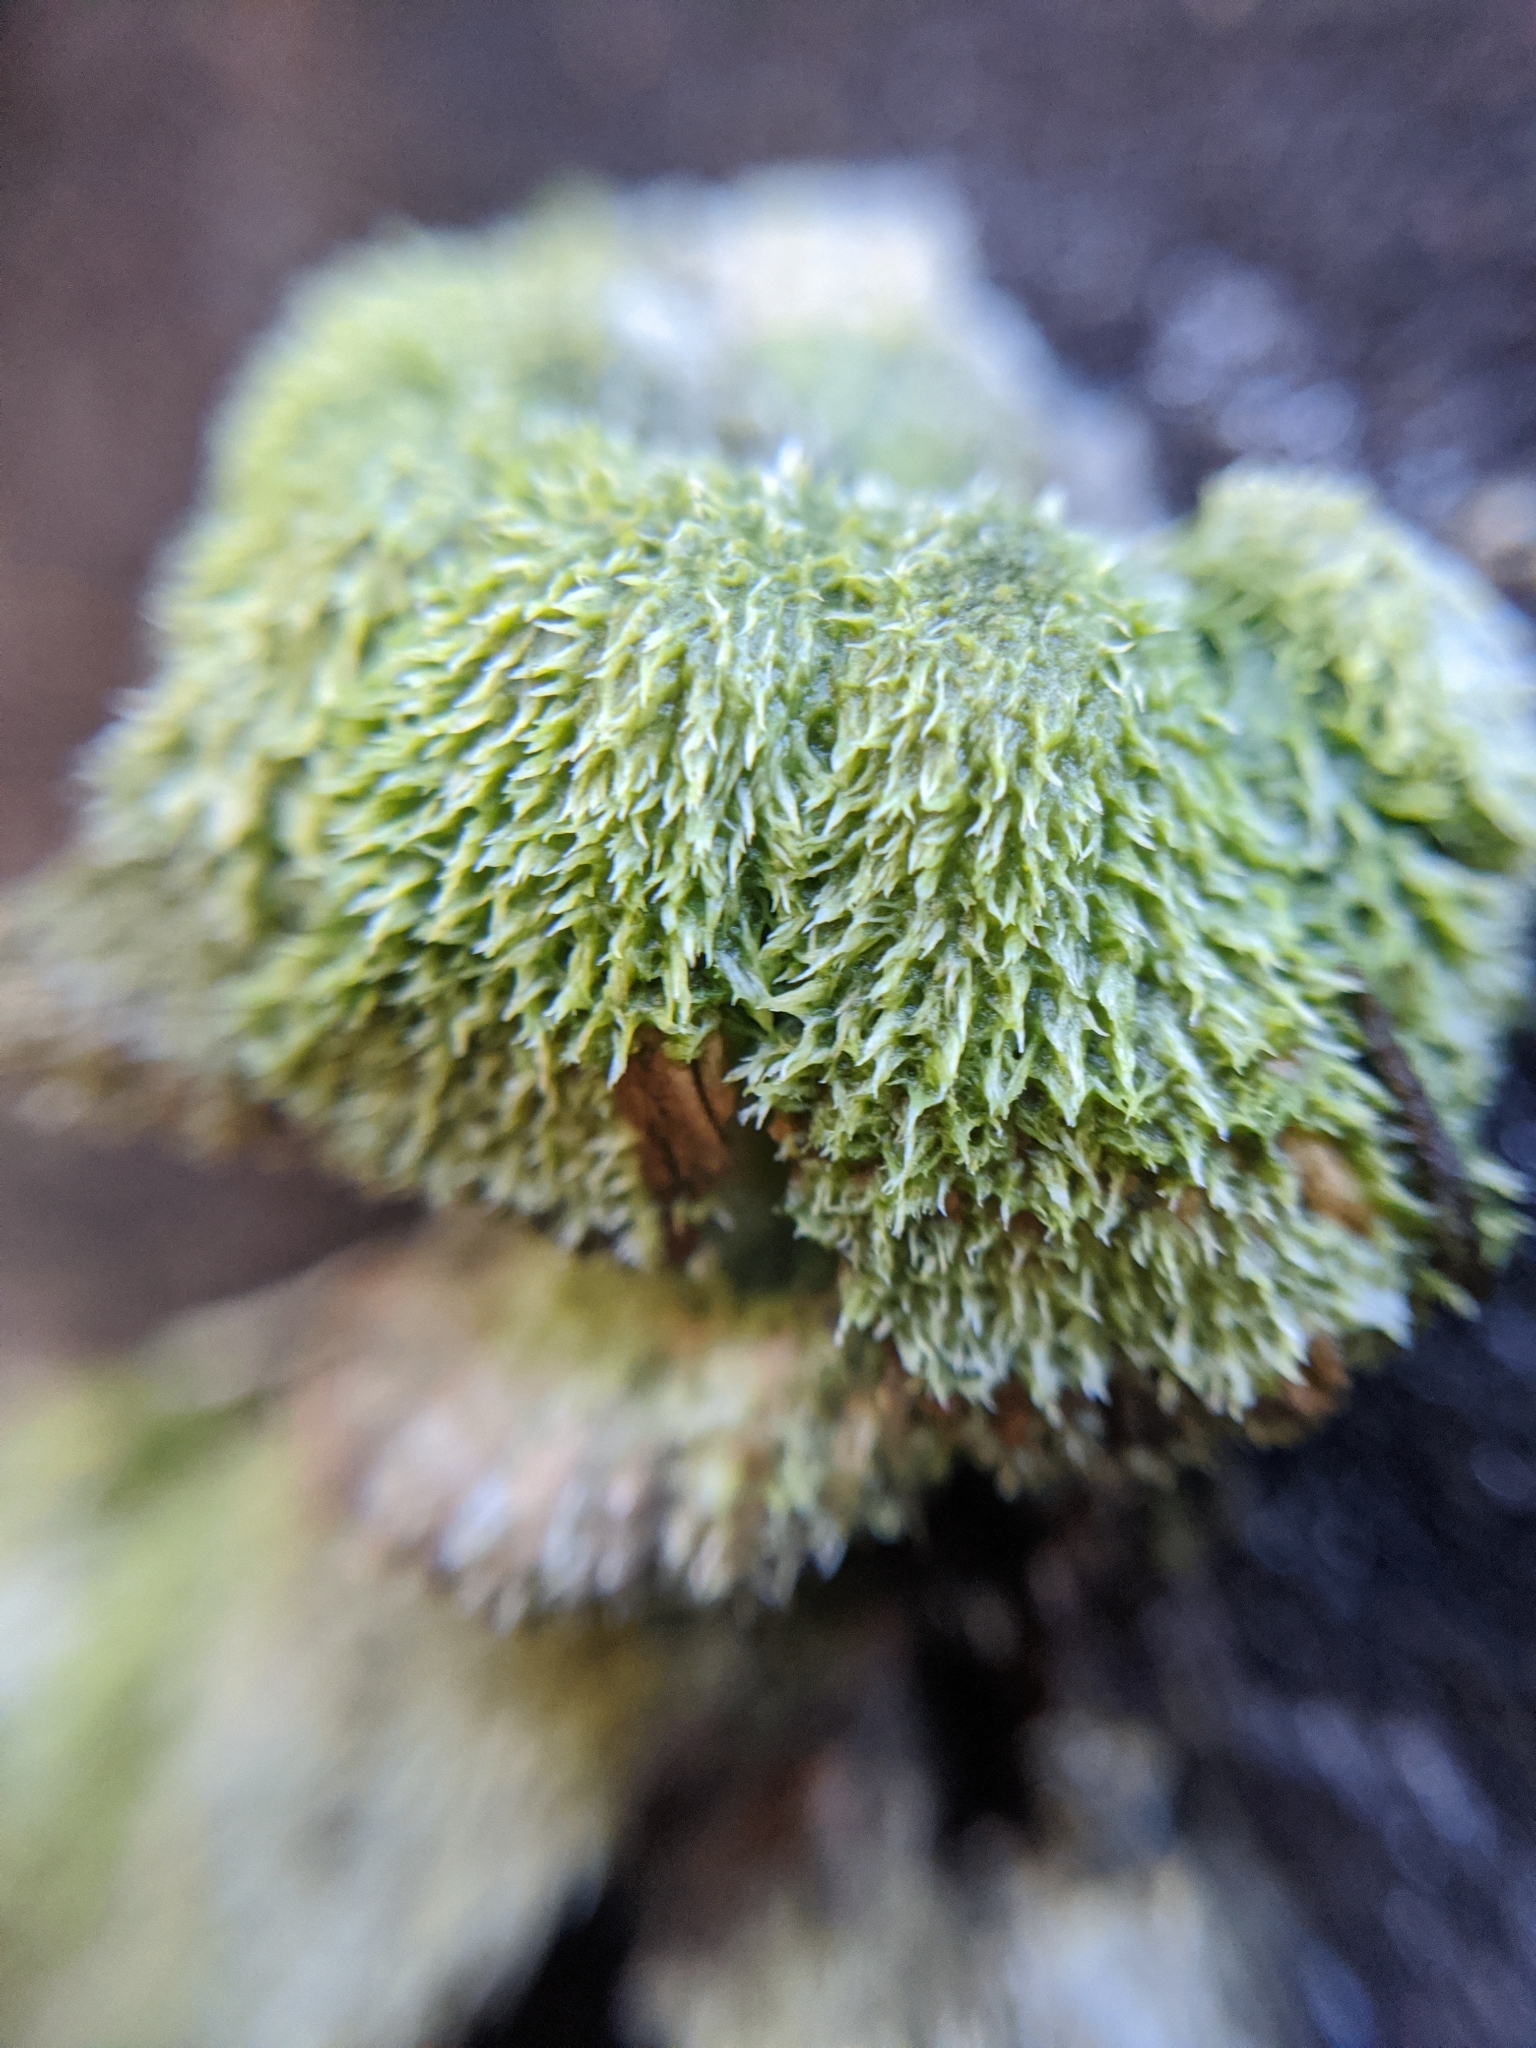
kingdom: Fungi
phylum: Basidiomycota
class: Agaricomycetes
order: Agaricales
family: Schizophyllaceae
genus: Schizophyllum
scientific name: Schizophyllum commune
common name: Common porecrust
